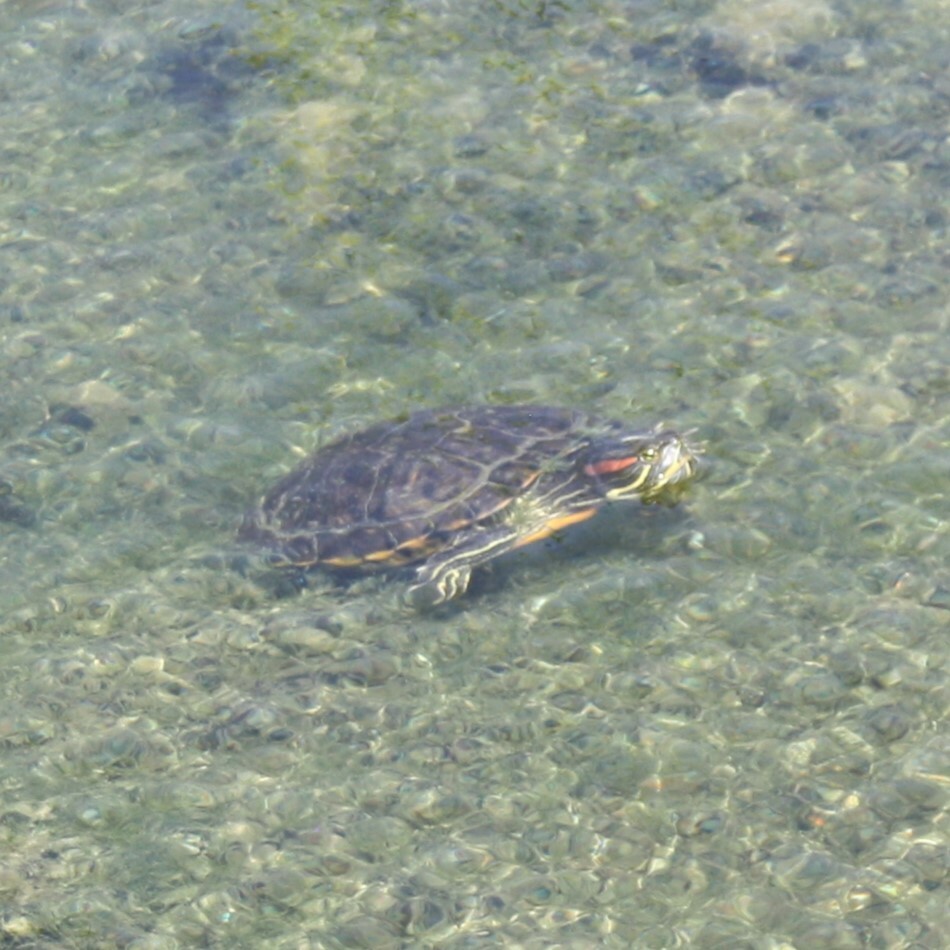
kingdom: Animalia
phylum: Chordata
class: Testudines
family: Emydidae
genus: Trachemys
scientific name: Trachemys scripta
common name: Slider
